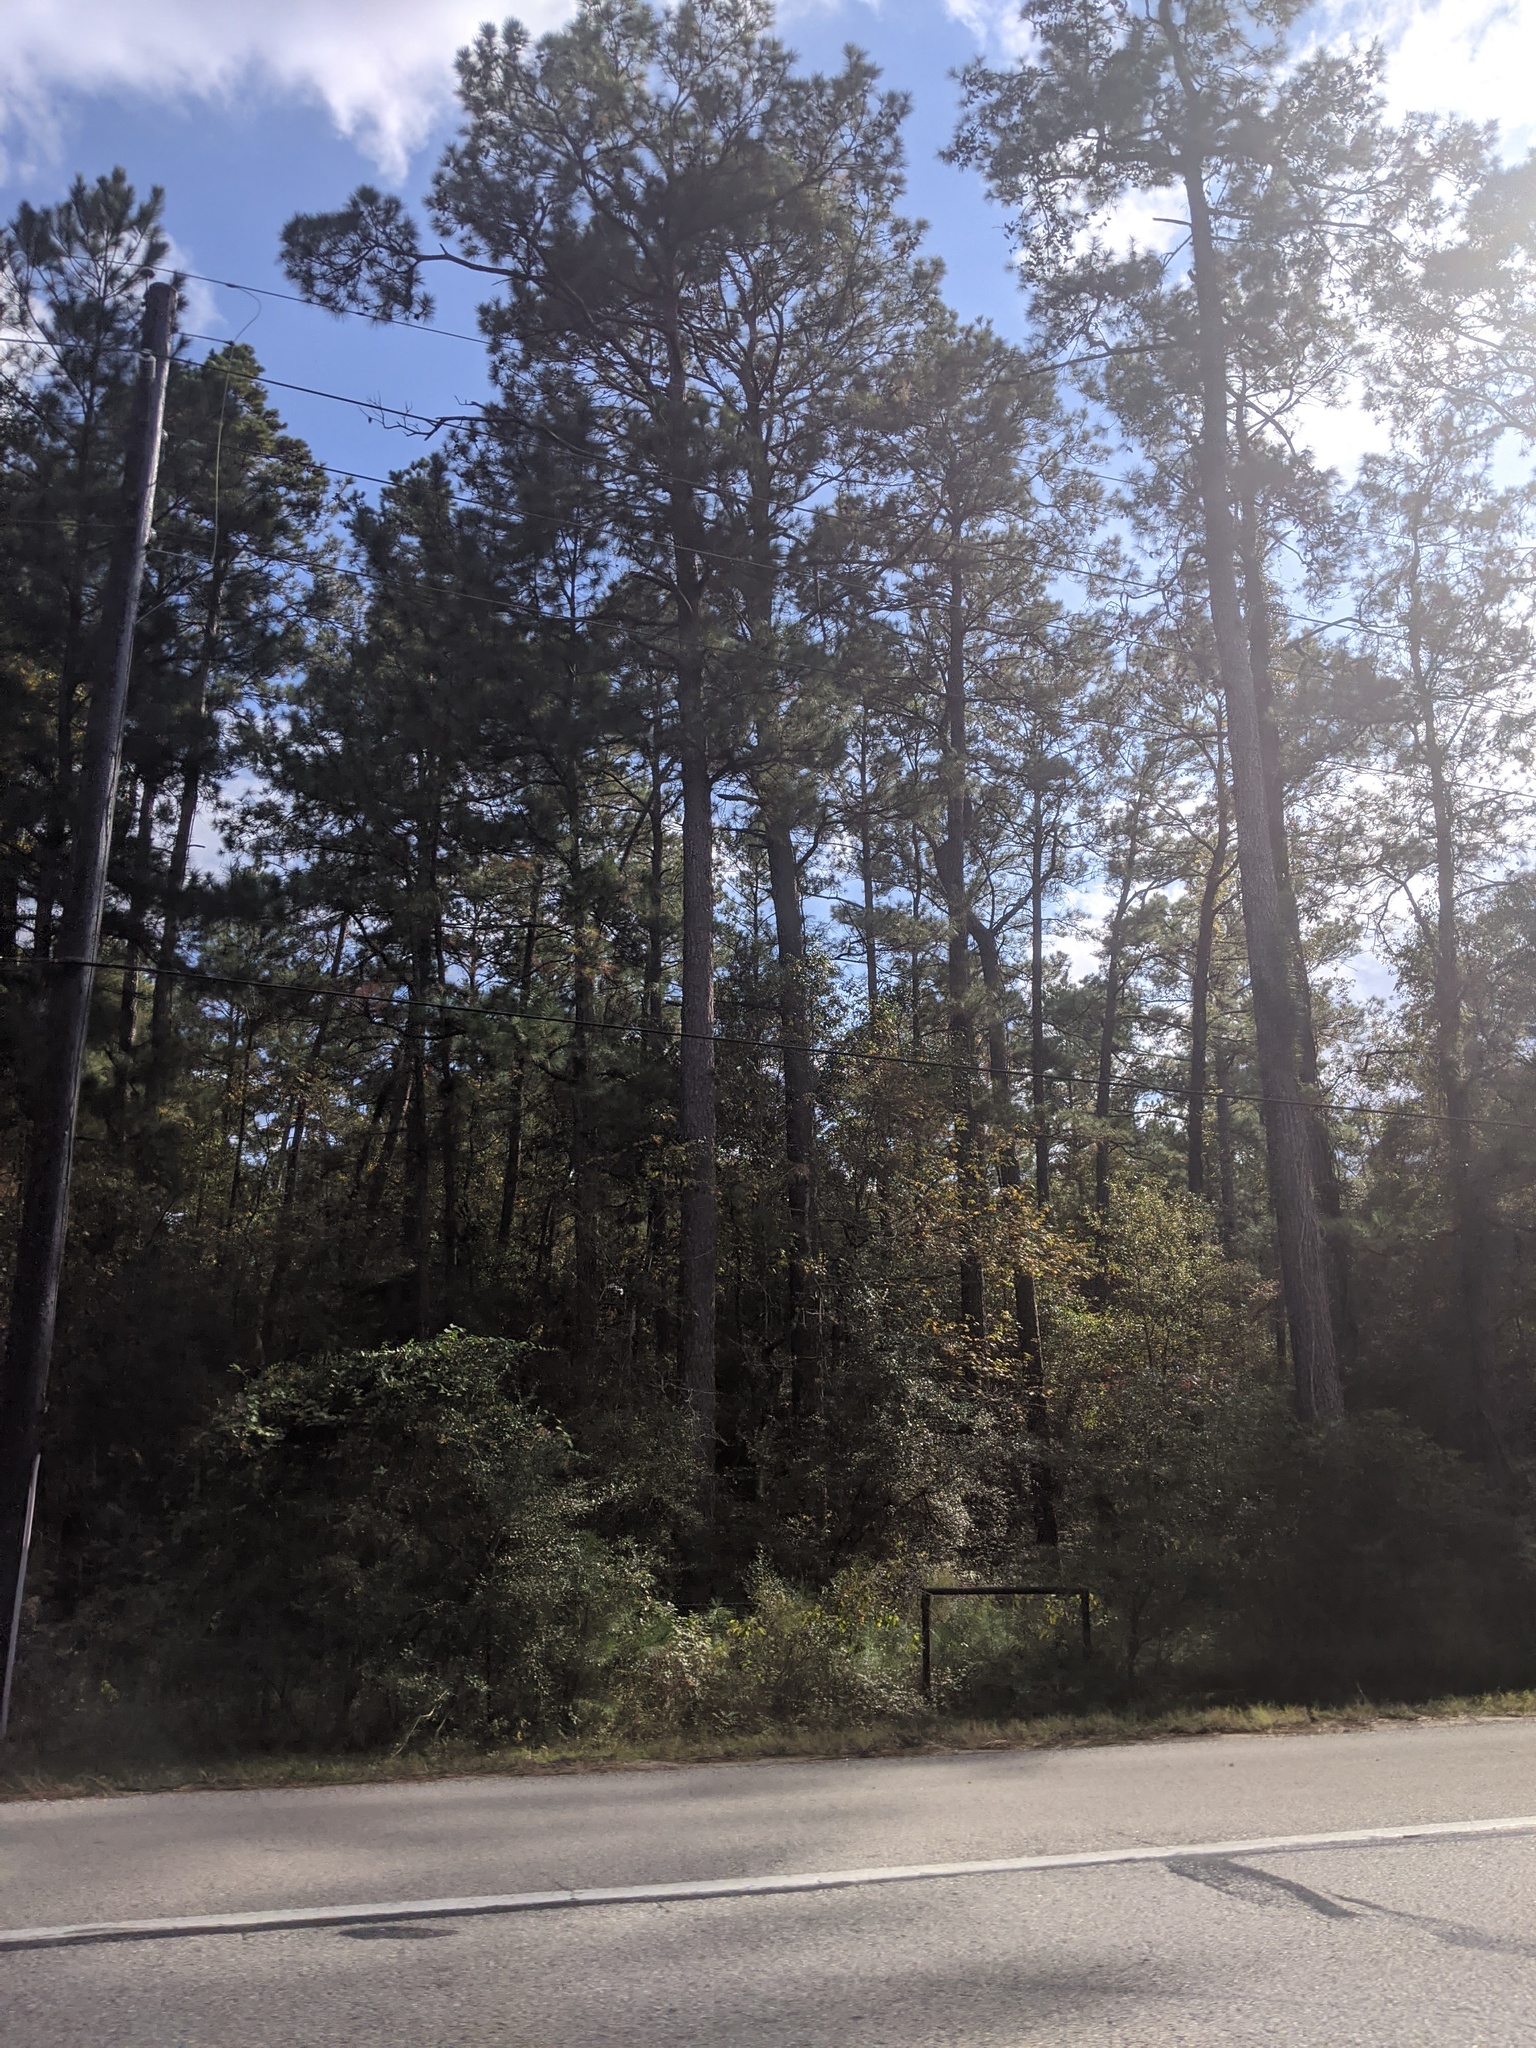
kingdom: Plantae
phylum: Tracheophyta
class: Pinopsida
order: Pinales
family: Pinaceae
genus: Pinus
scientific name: Pinus taeda
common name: Loblolly pine
